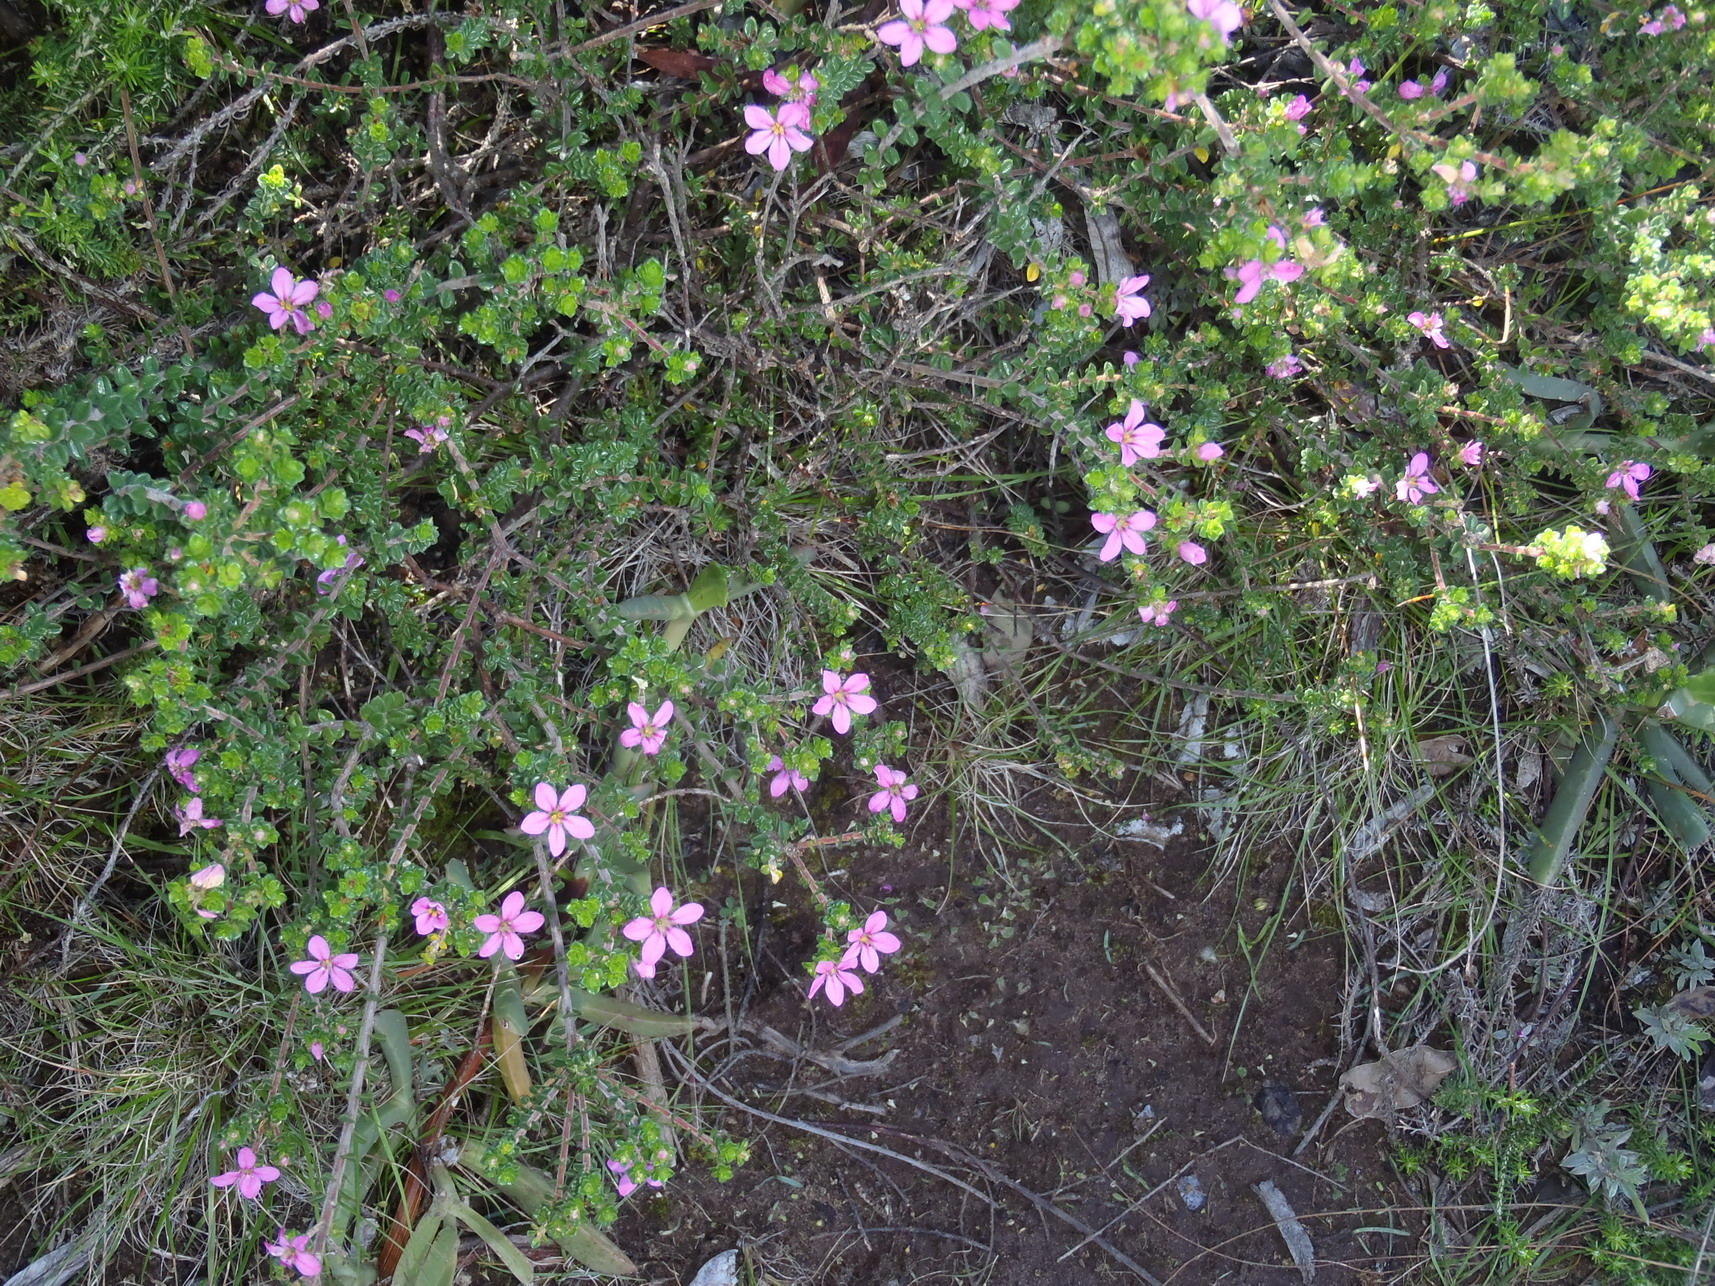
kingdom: Plantae
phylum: Tracheophyta
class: Magnoliopsida
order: Sapindales
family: Rutaceae
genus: Acmadenia
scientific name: Acmadenia heterophylla
